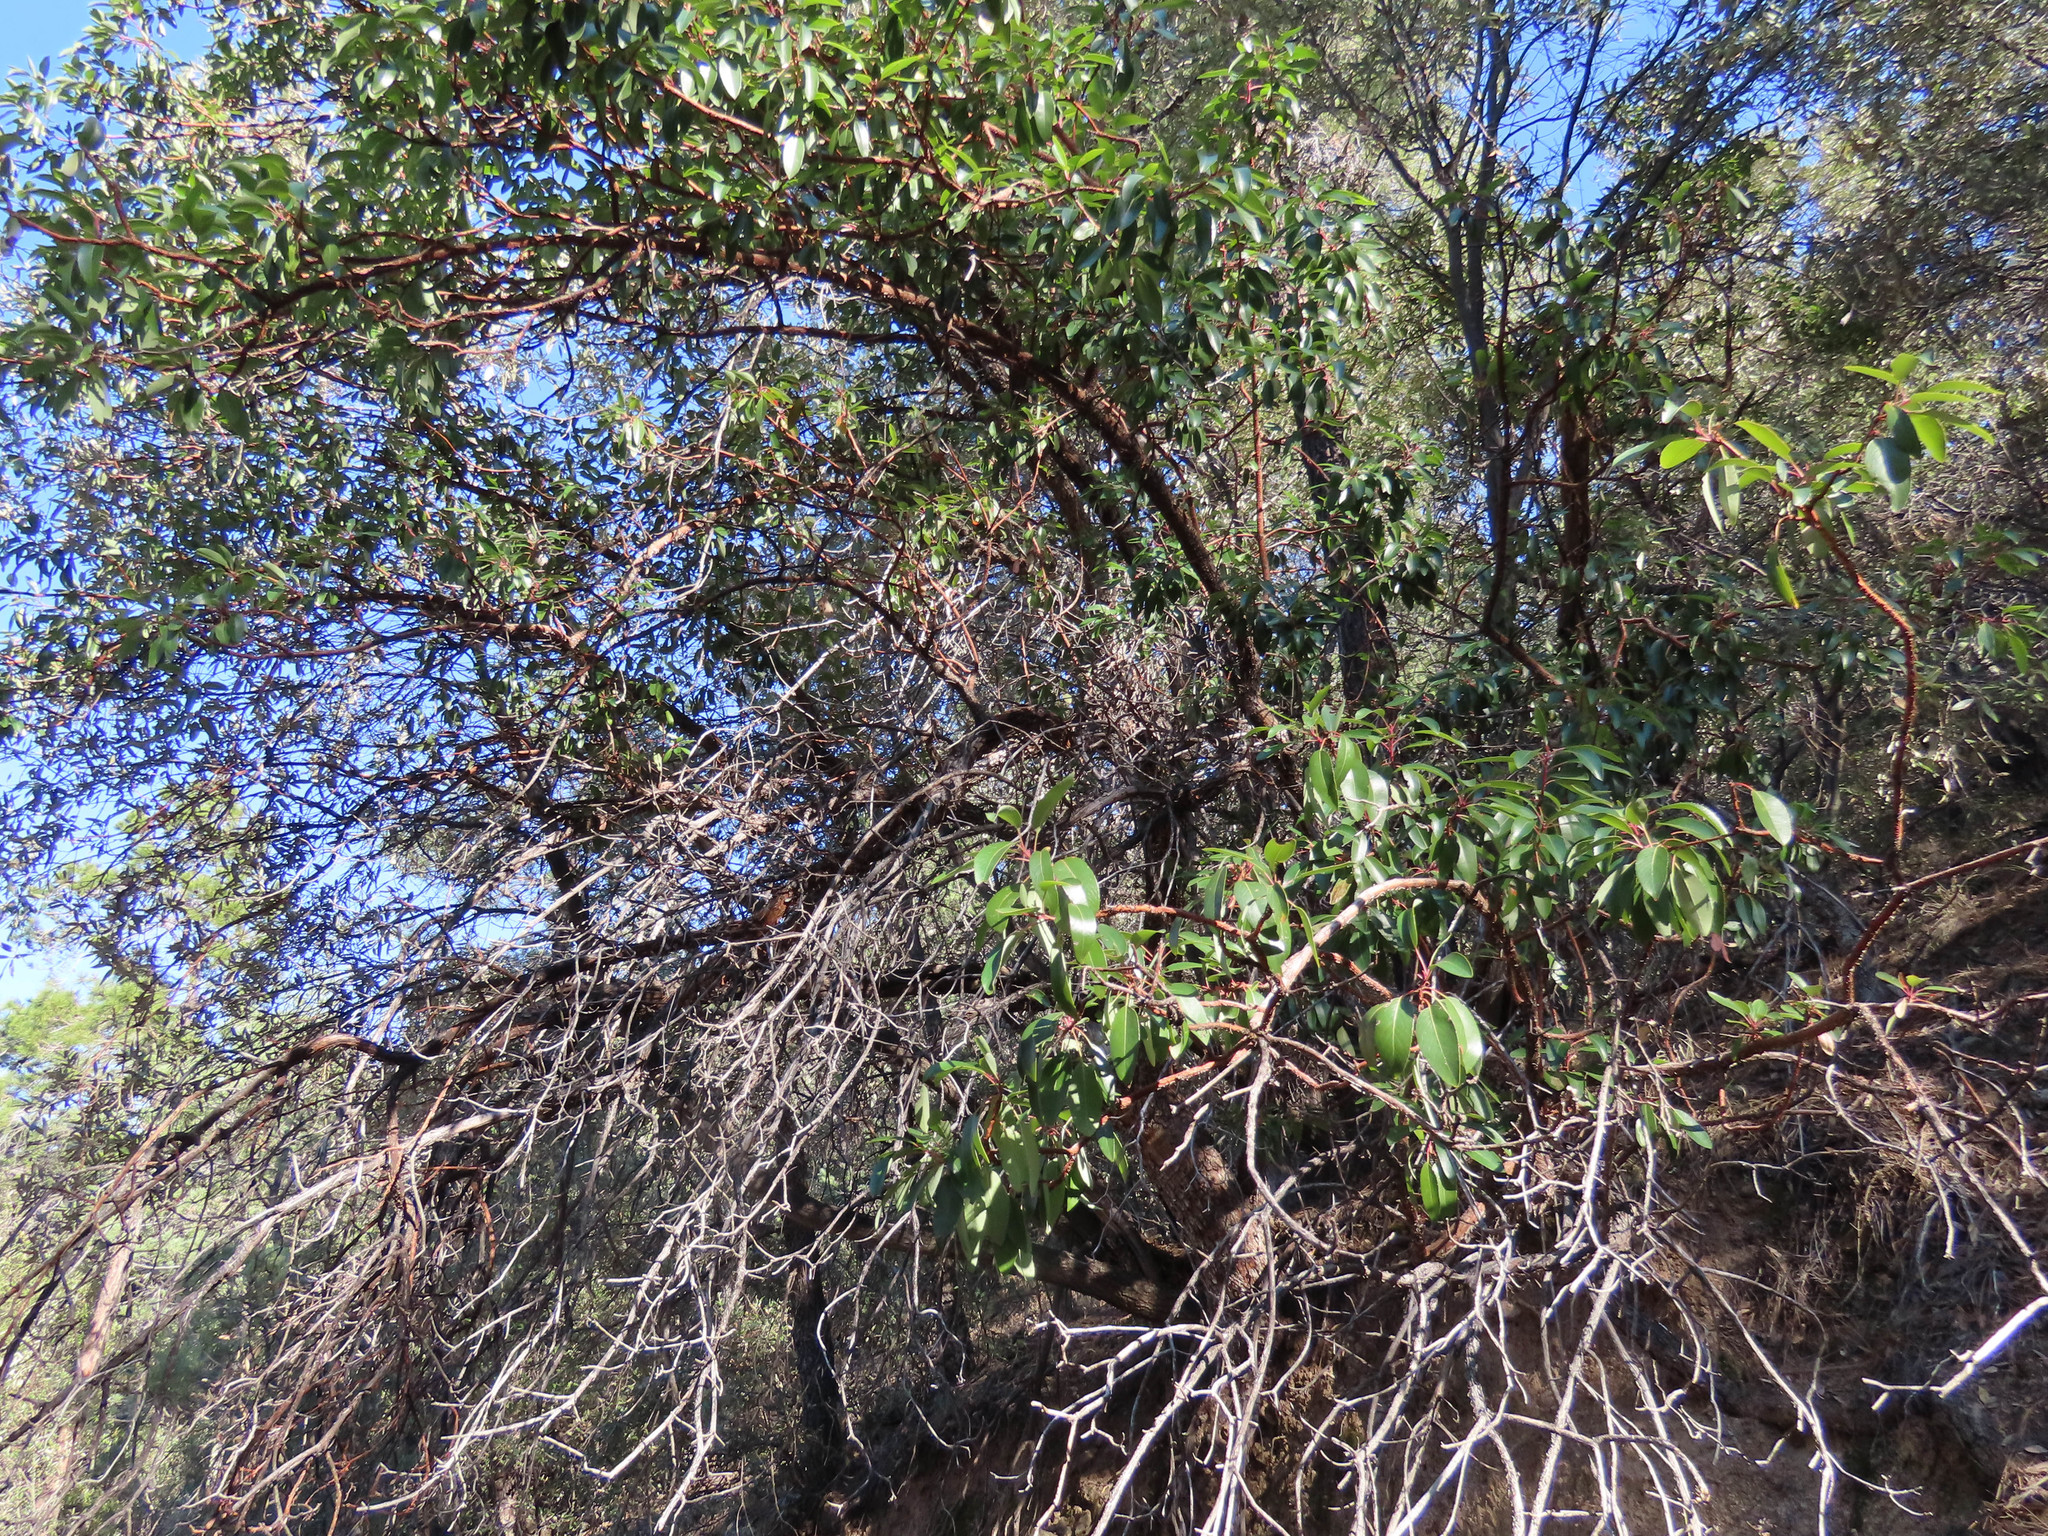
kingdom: Plantae
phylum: Tracheophyta
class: Magnoliopsida
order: Ericales
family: Ericaceae
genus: Arbutus
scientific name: Arbutus arizonica
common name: Arizona madrone
